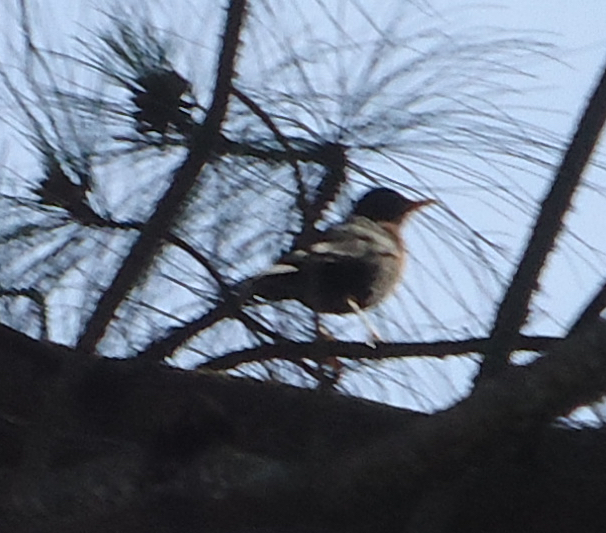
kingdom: Animalia
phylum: Chordata
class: Aves
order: Passeriformes
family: Turdidae
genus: Turdus
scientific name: Turdus rufitorques
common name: Rufous-collared thrush
